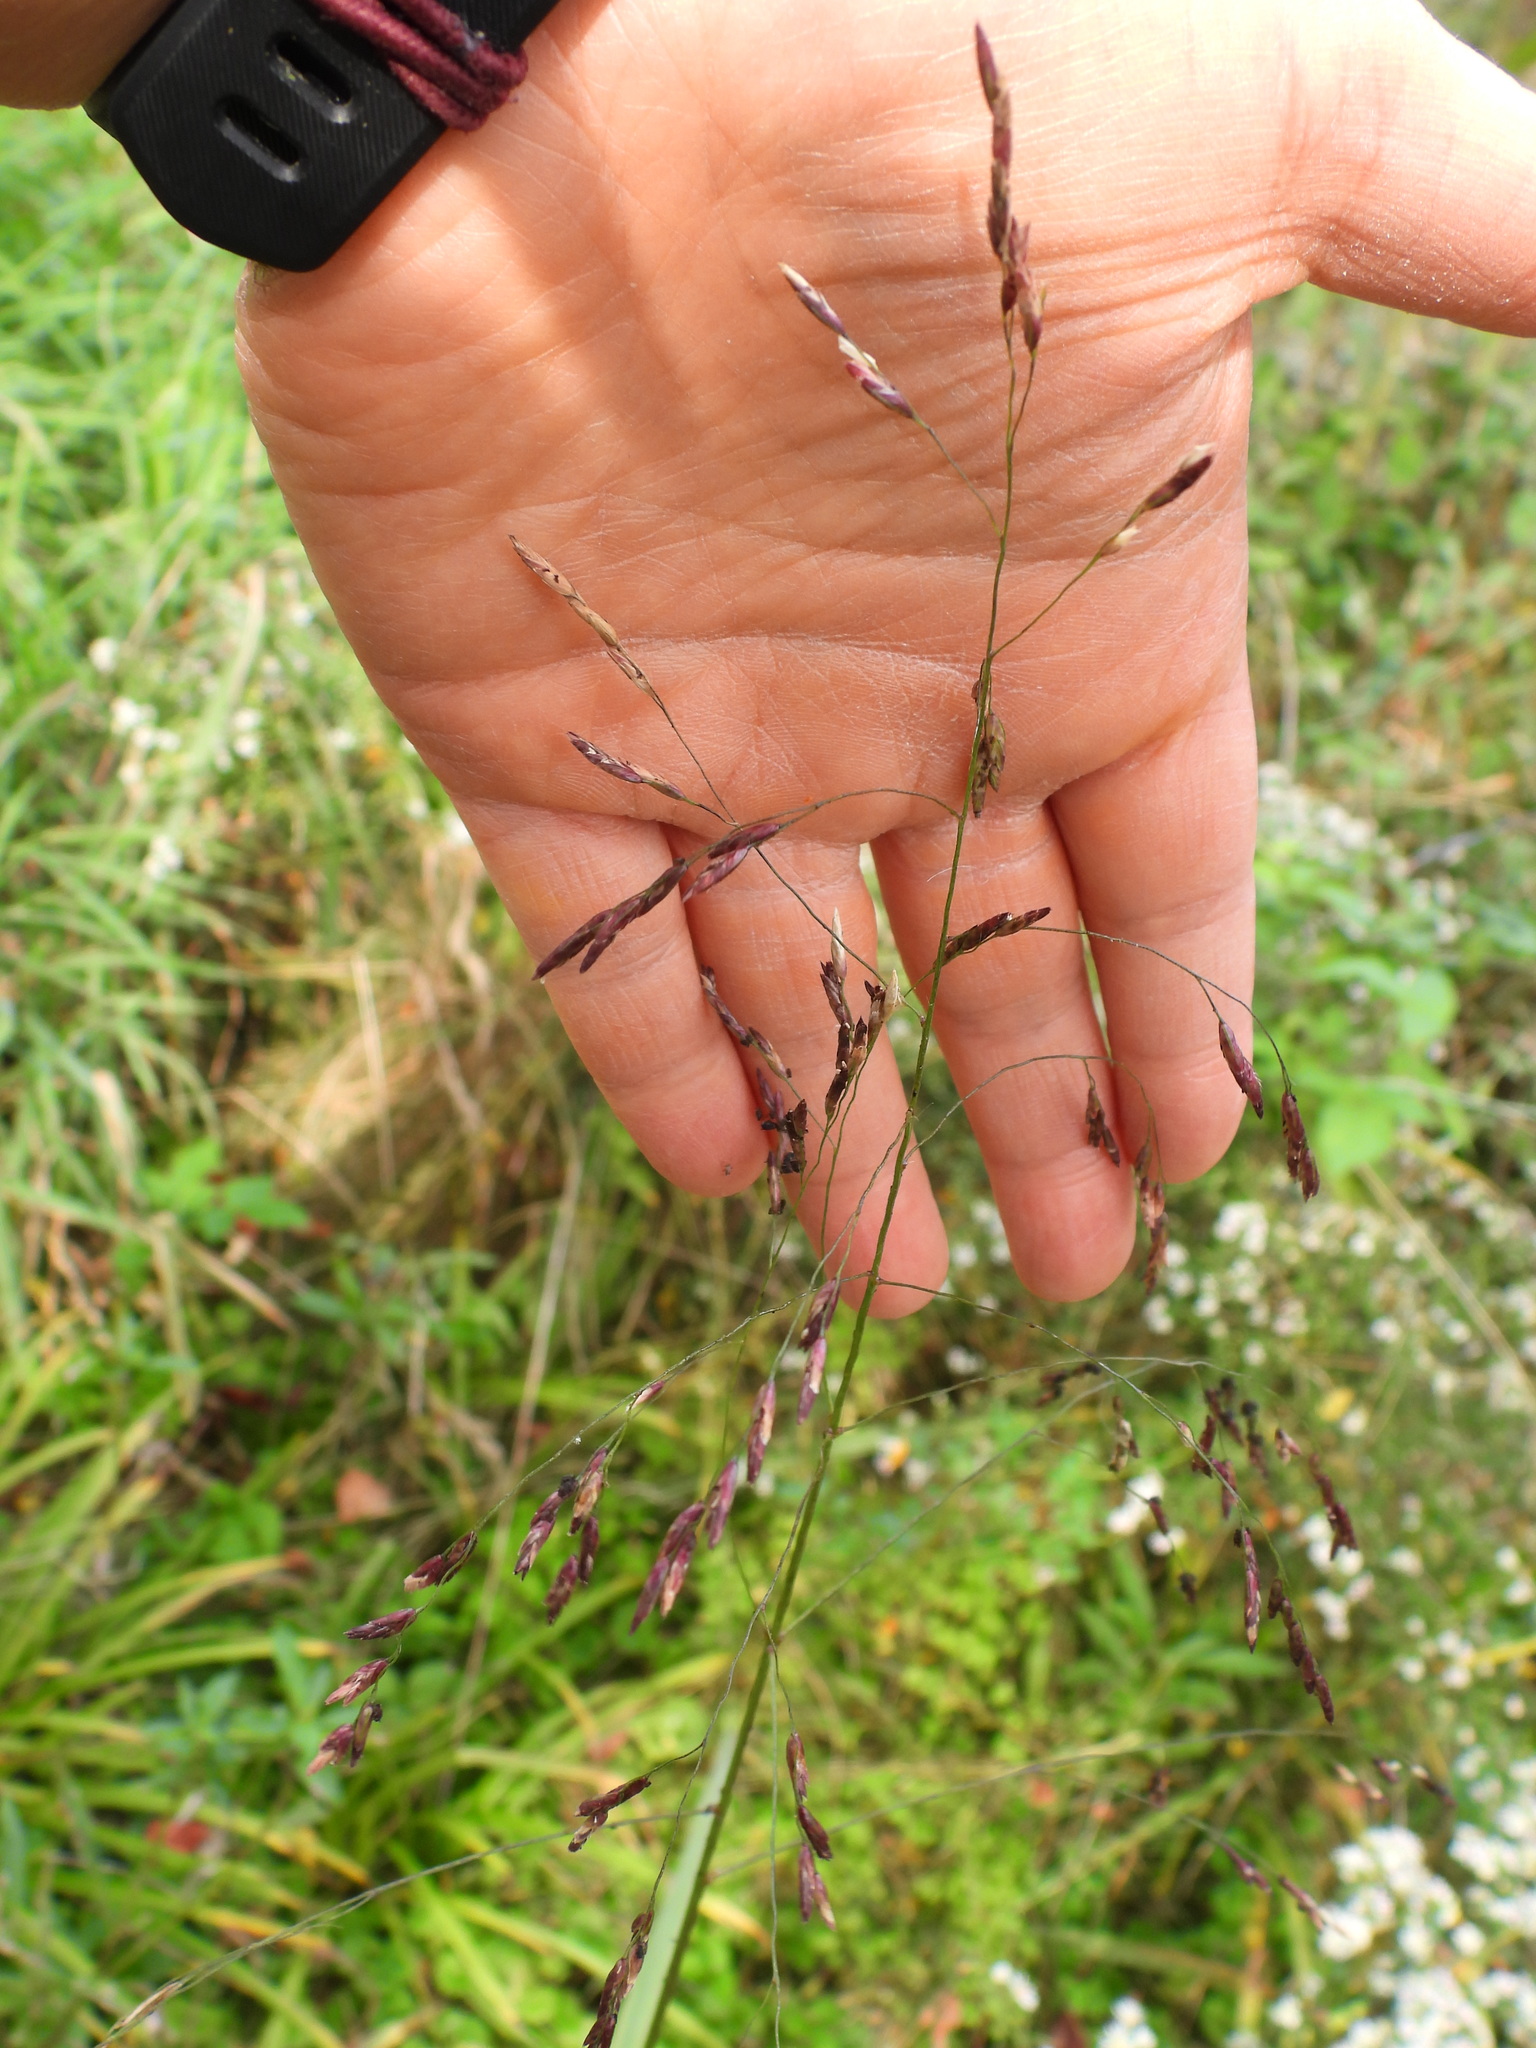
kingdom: Plantae
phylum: Tracheophyta
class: Liliopsida
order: Poales
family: Poaceae
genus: Tridens
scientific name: Tridens flavus
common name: Purpletop
